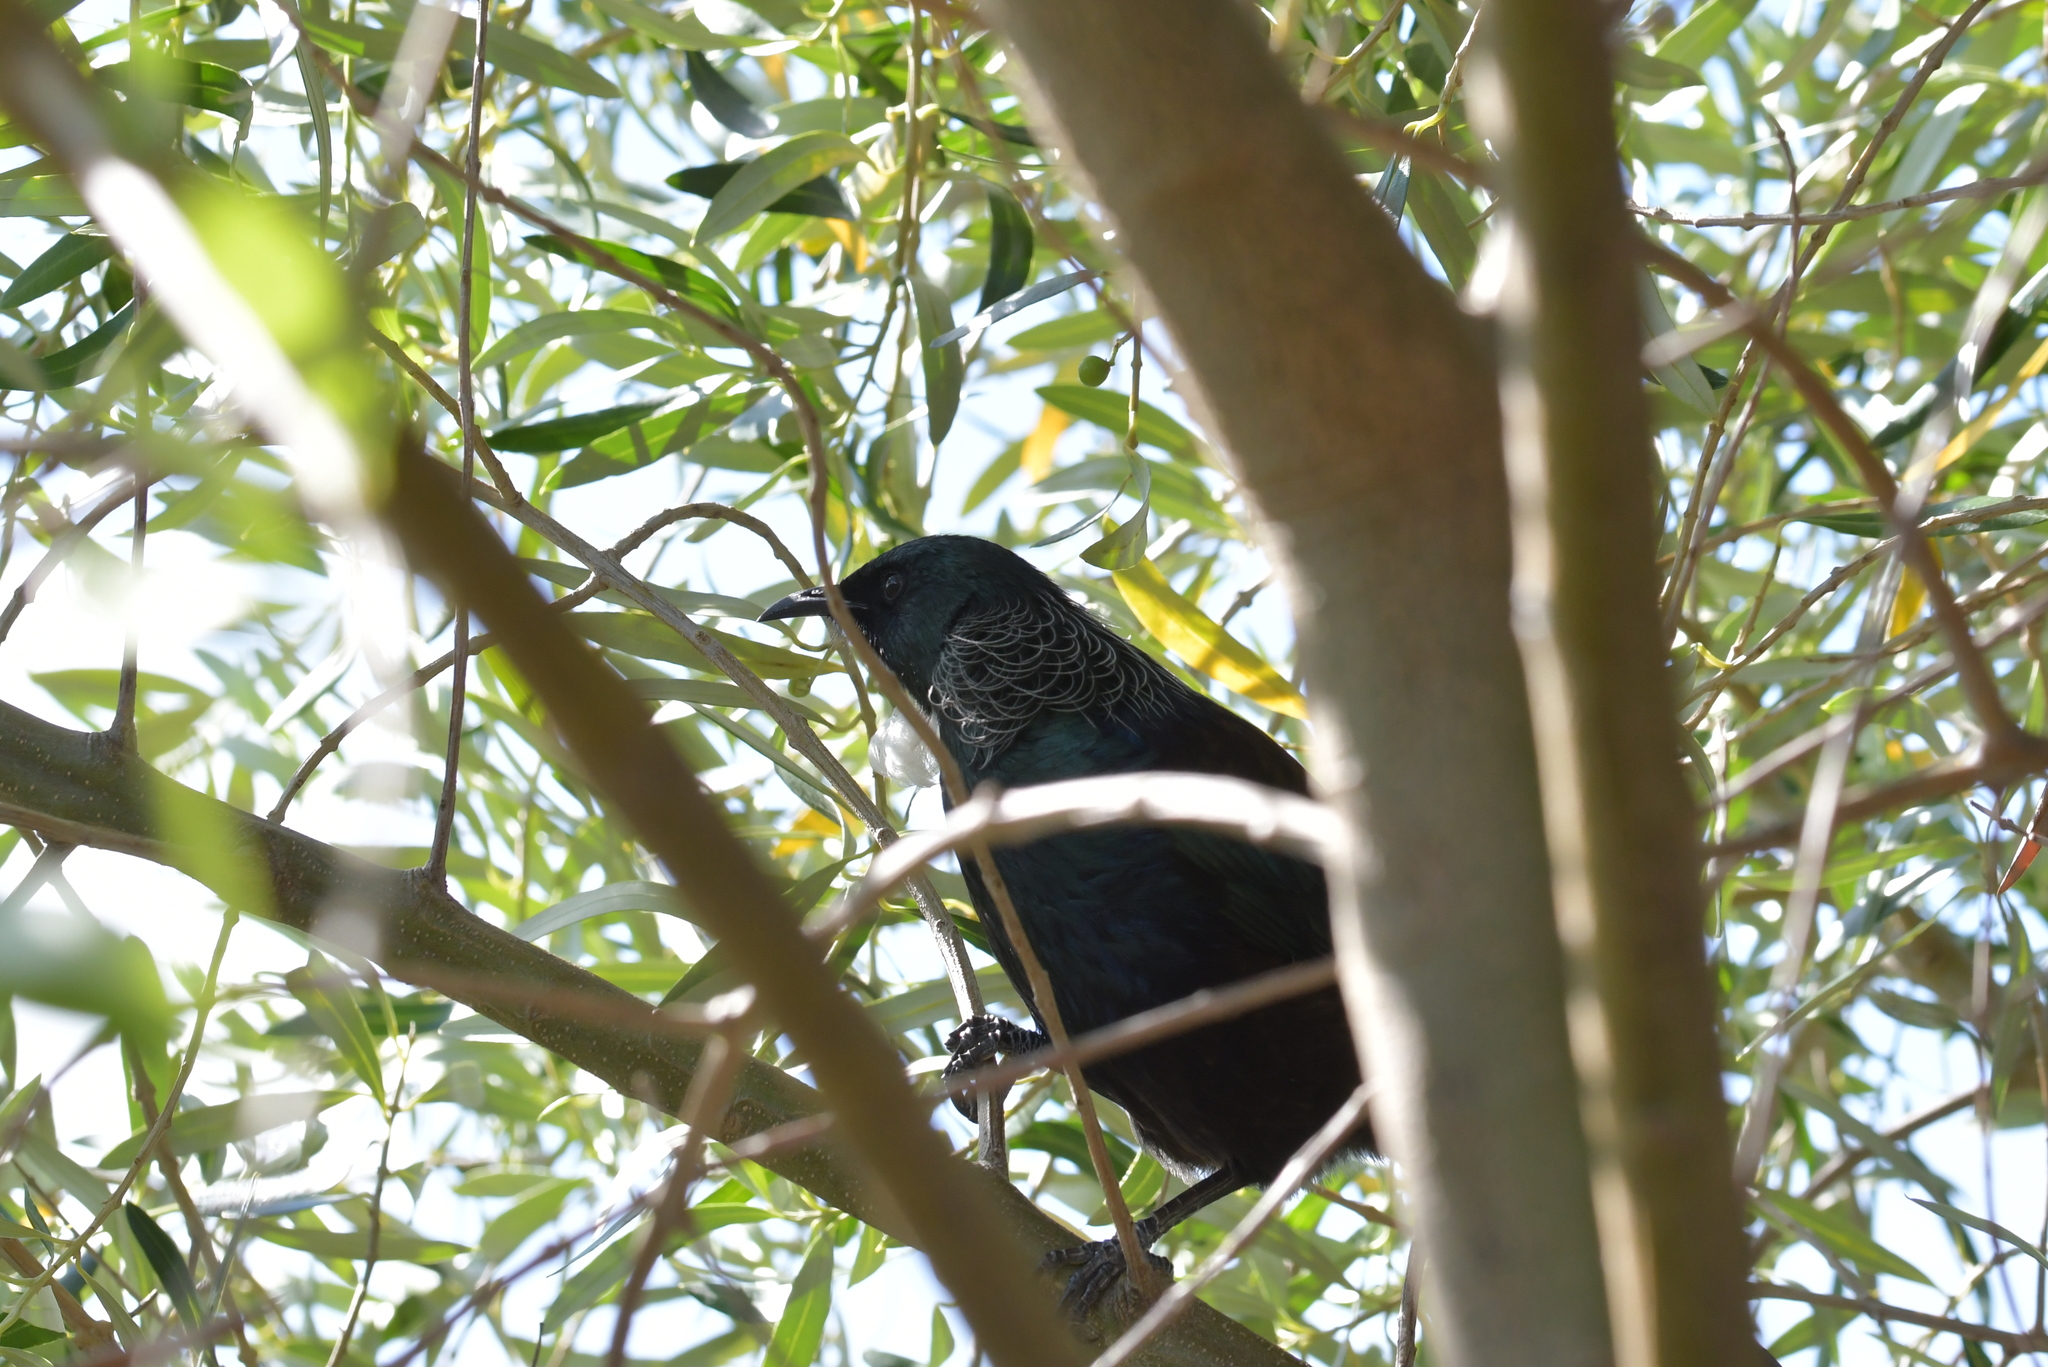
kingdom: Animalia
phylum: Chordata
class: Aves
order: Passeriformes
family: Meliphagidae
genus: Prosthemadera
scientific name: Prosthemadera novaeseelandiae
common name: Tui
